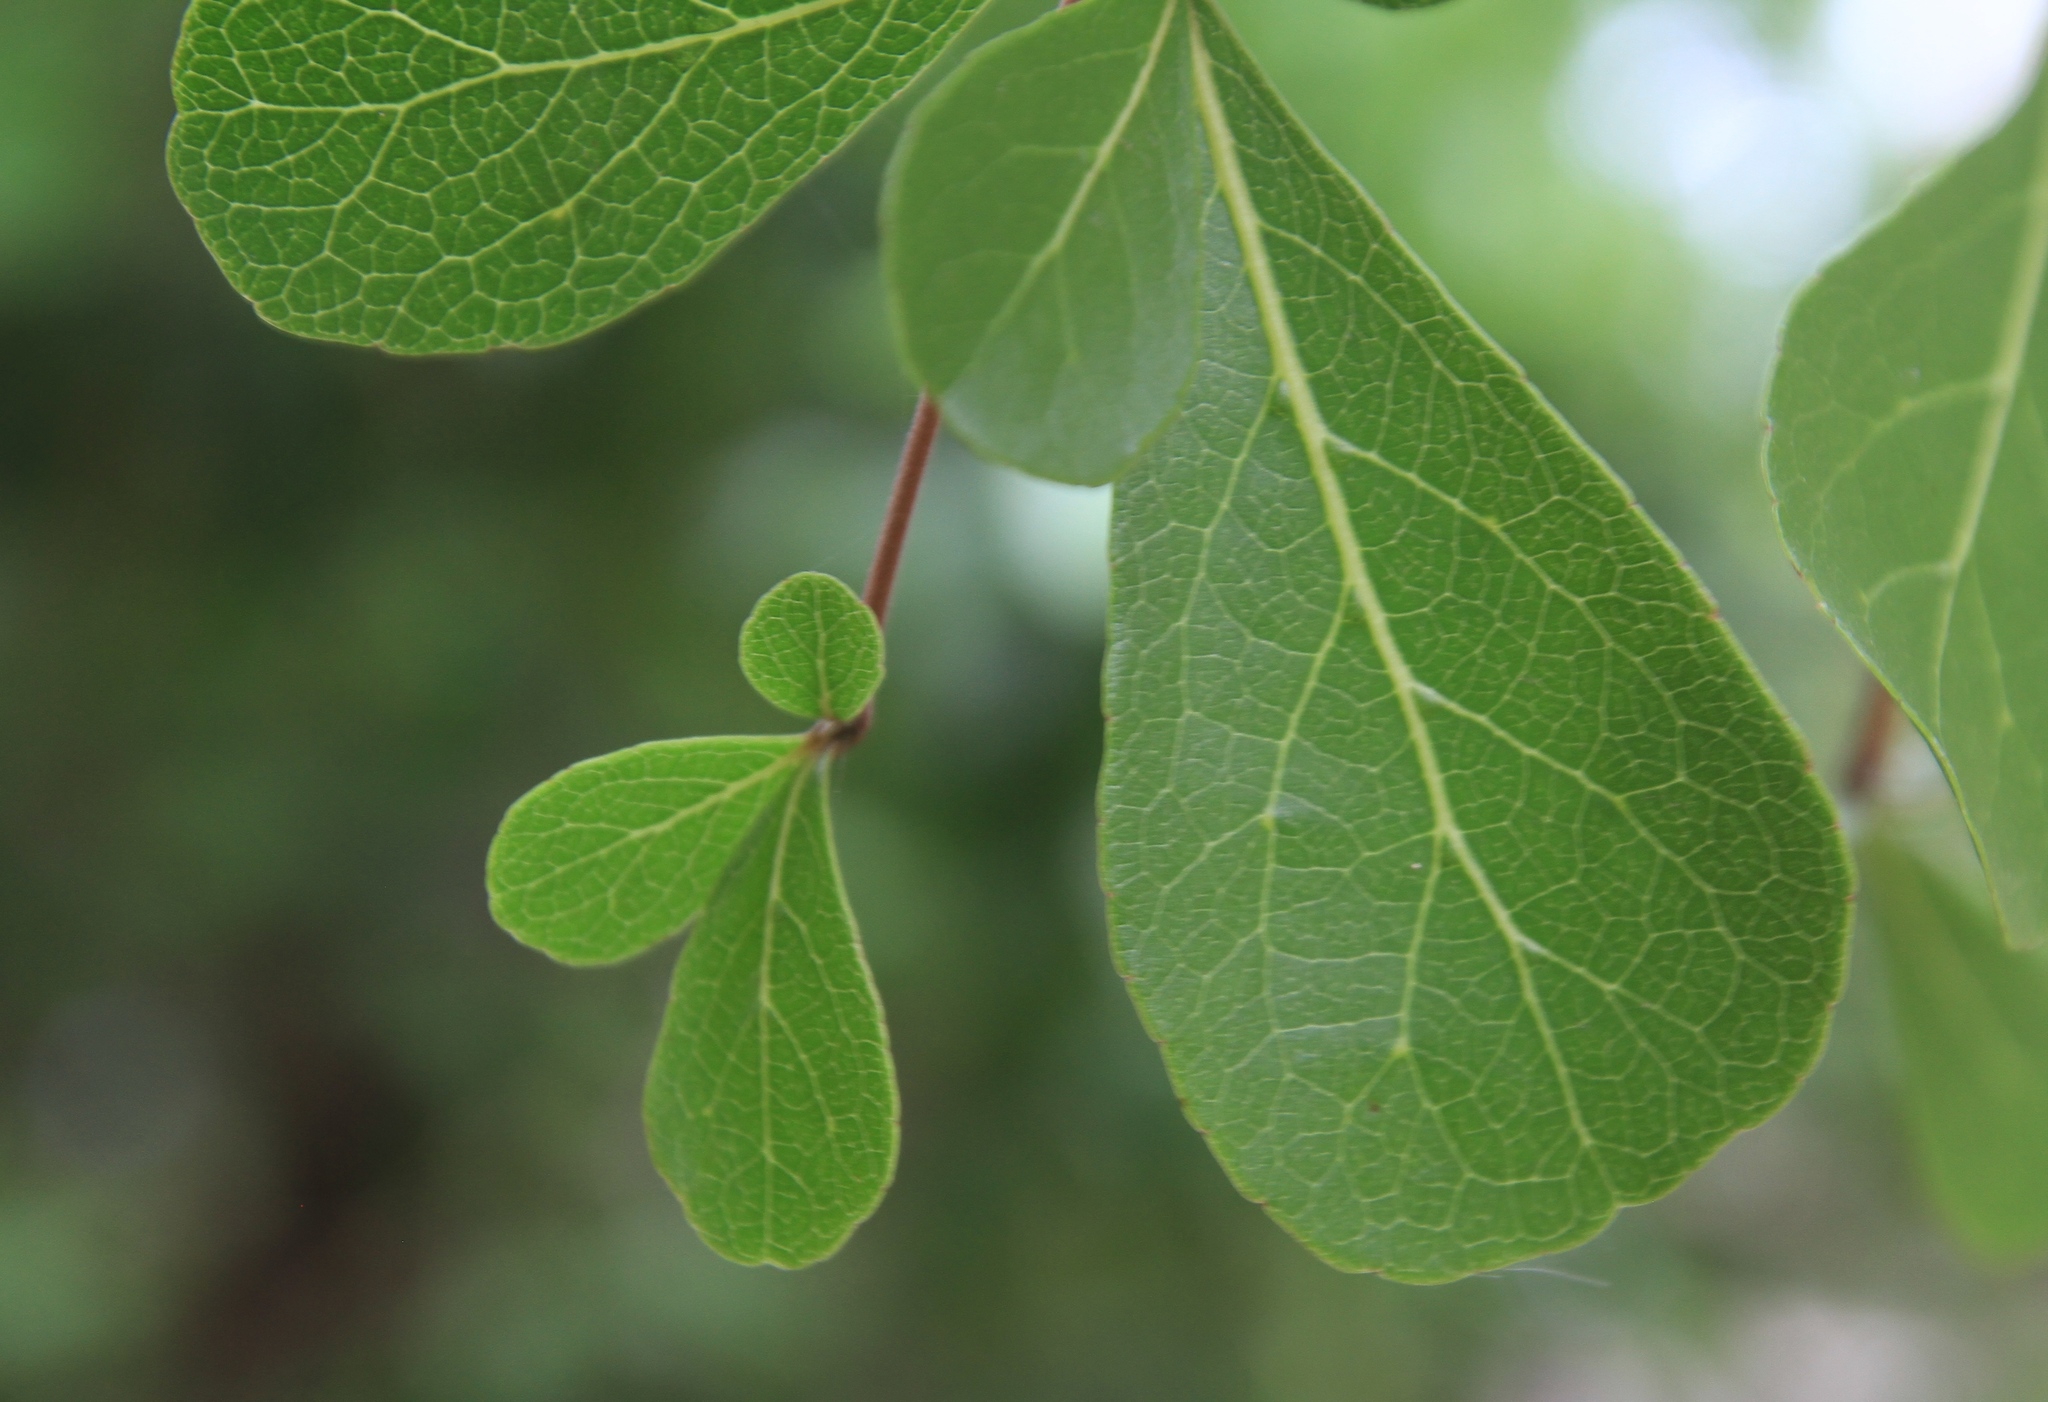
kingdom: Plantae
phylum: Tracheophyta
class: Magnoliopsida
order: Myrtales
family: Combretaceae
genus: Terminalia
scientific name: Terminalia buceras
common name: Black-olive
